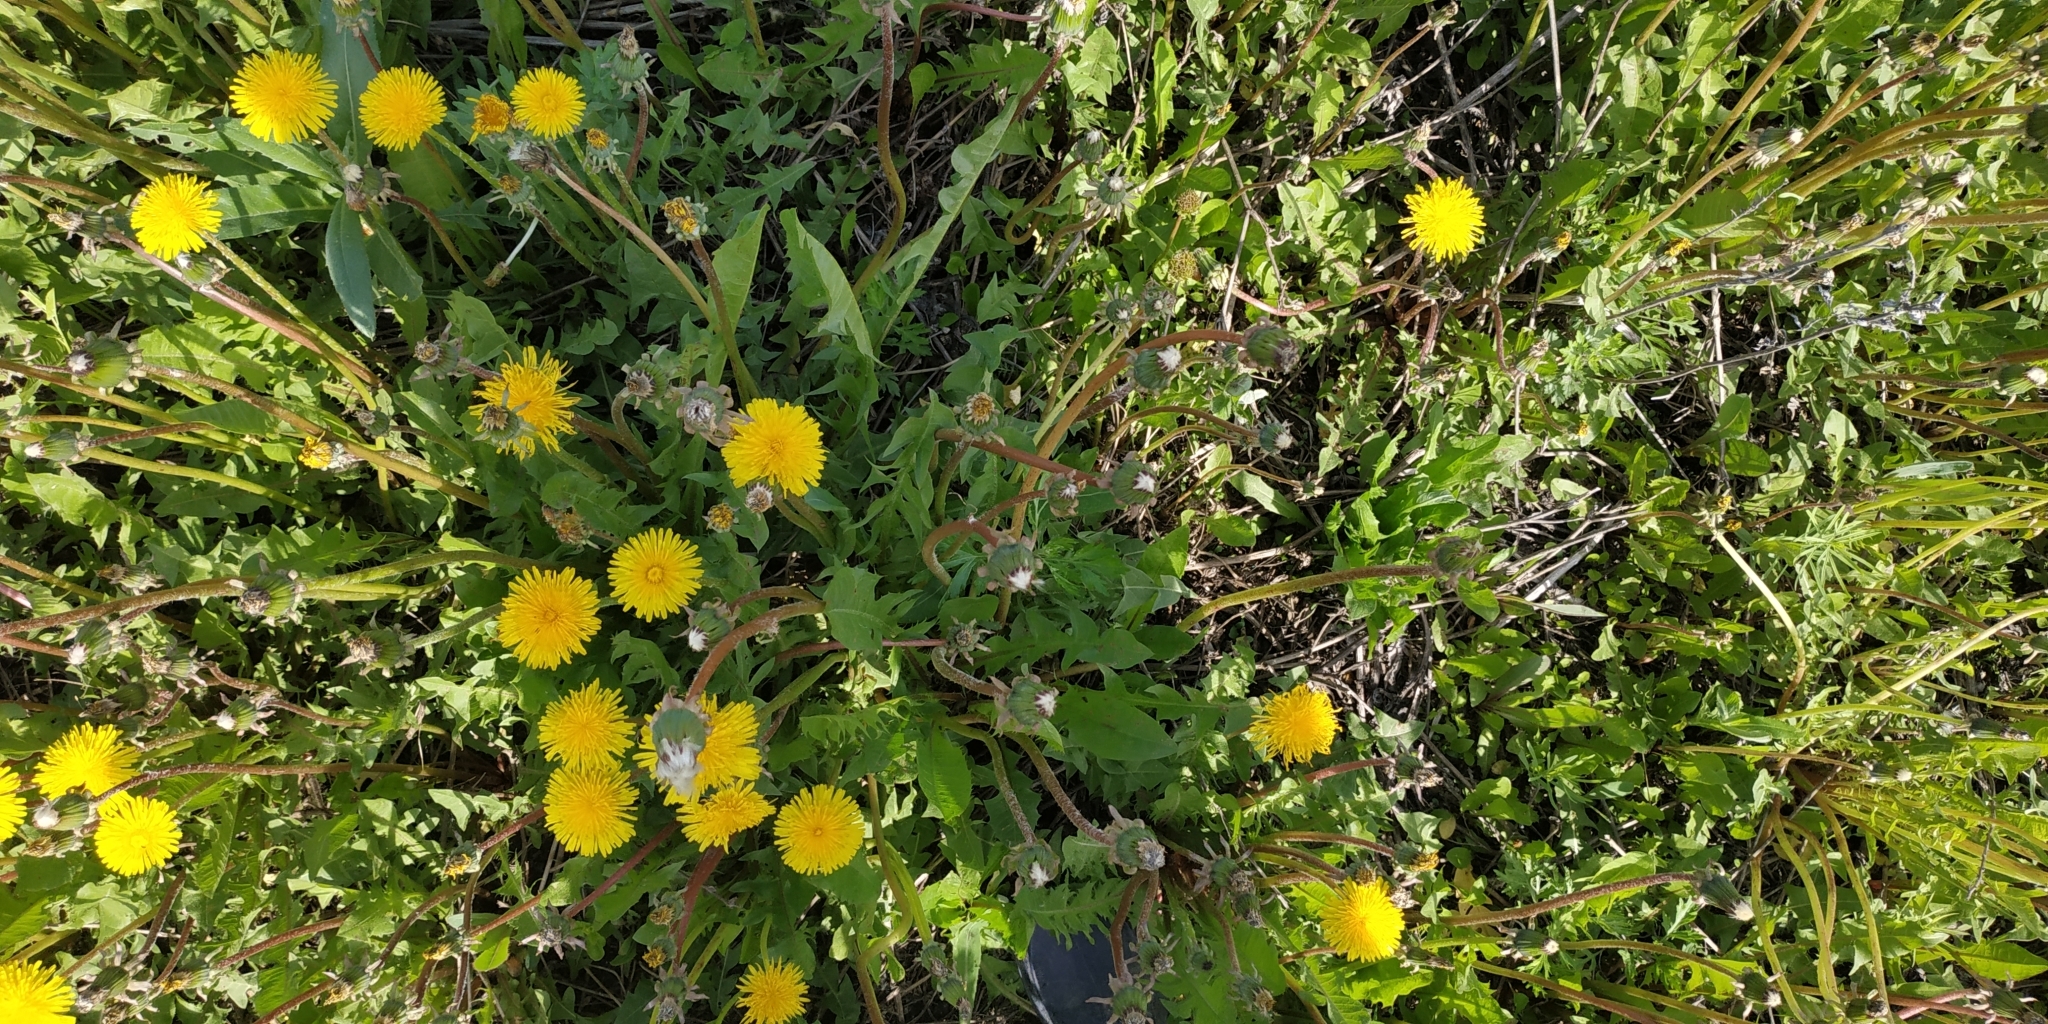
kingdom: Plantae
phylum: Tracheophyta
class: Magnoliopsida
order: Asterales
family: Asteraceae
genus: Taraxacum
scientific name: Taraxacum officinale
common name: Common dandelion
